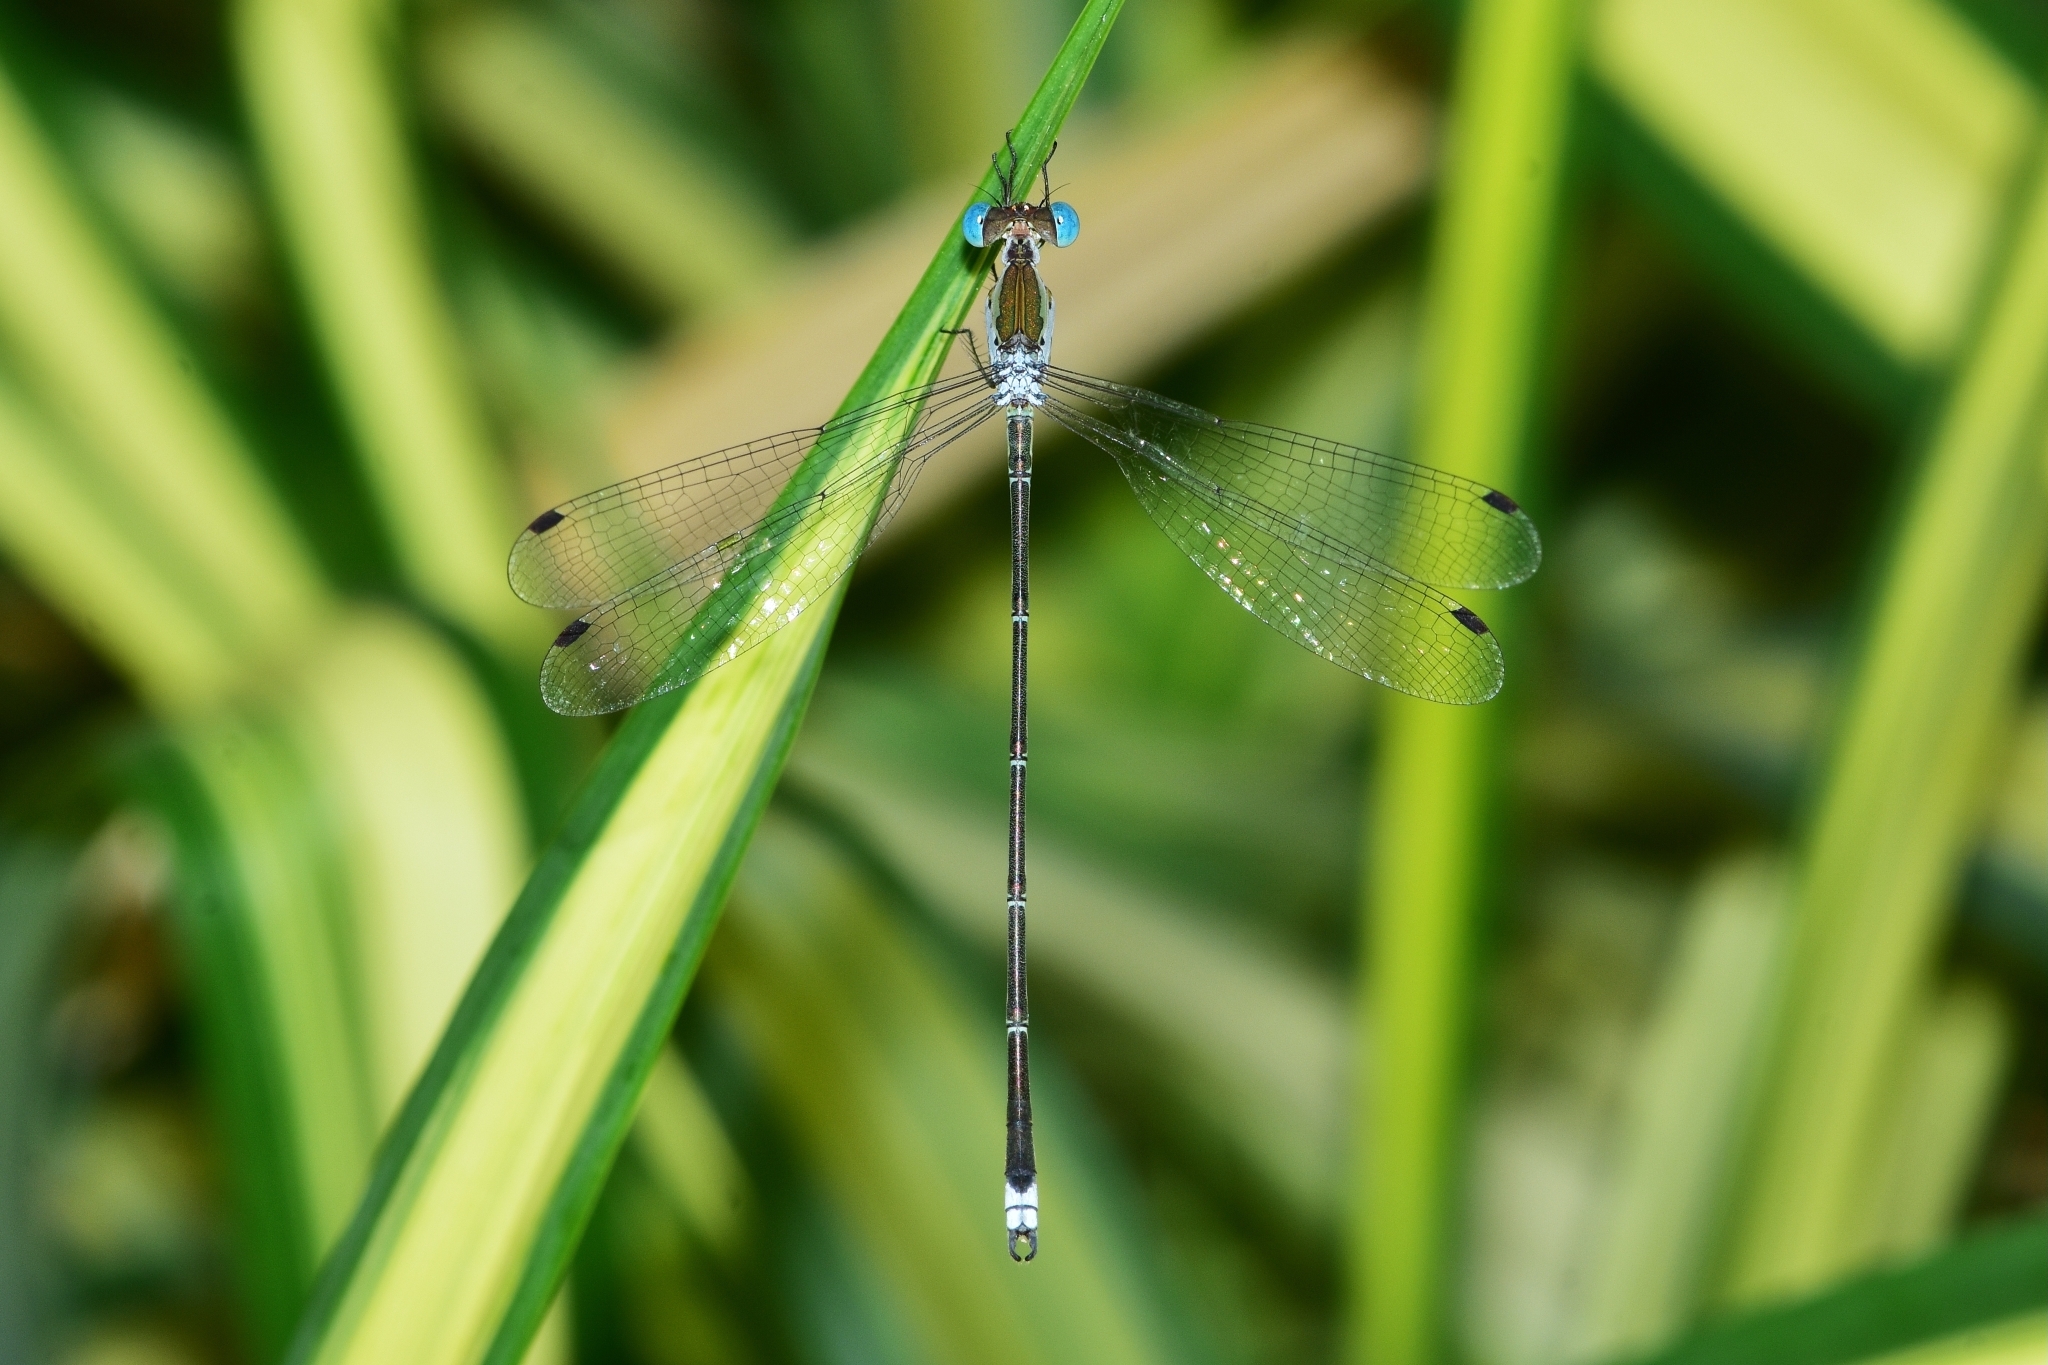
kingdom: Animalia
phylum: Arthropoda
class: Insecta
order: Odonata
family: Lestidae
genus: Lestes
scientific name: Lestes elatus
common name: Emerald spreadwing
